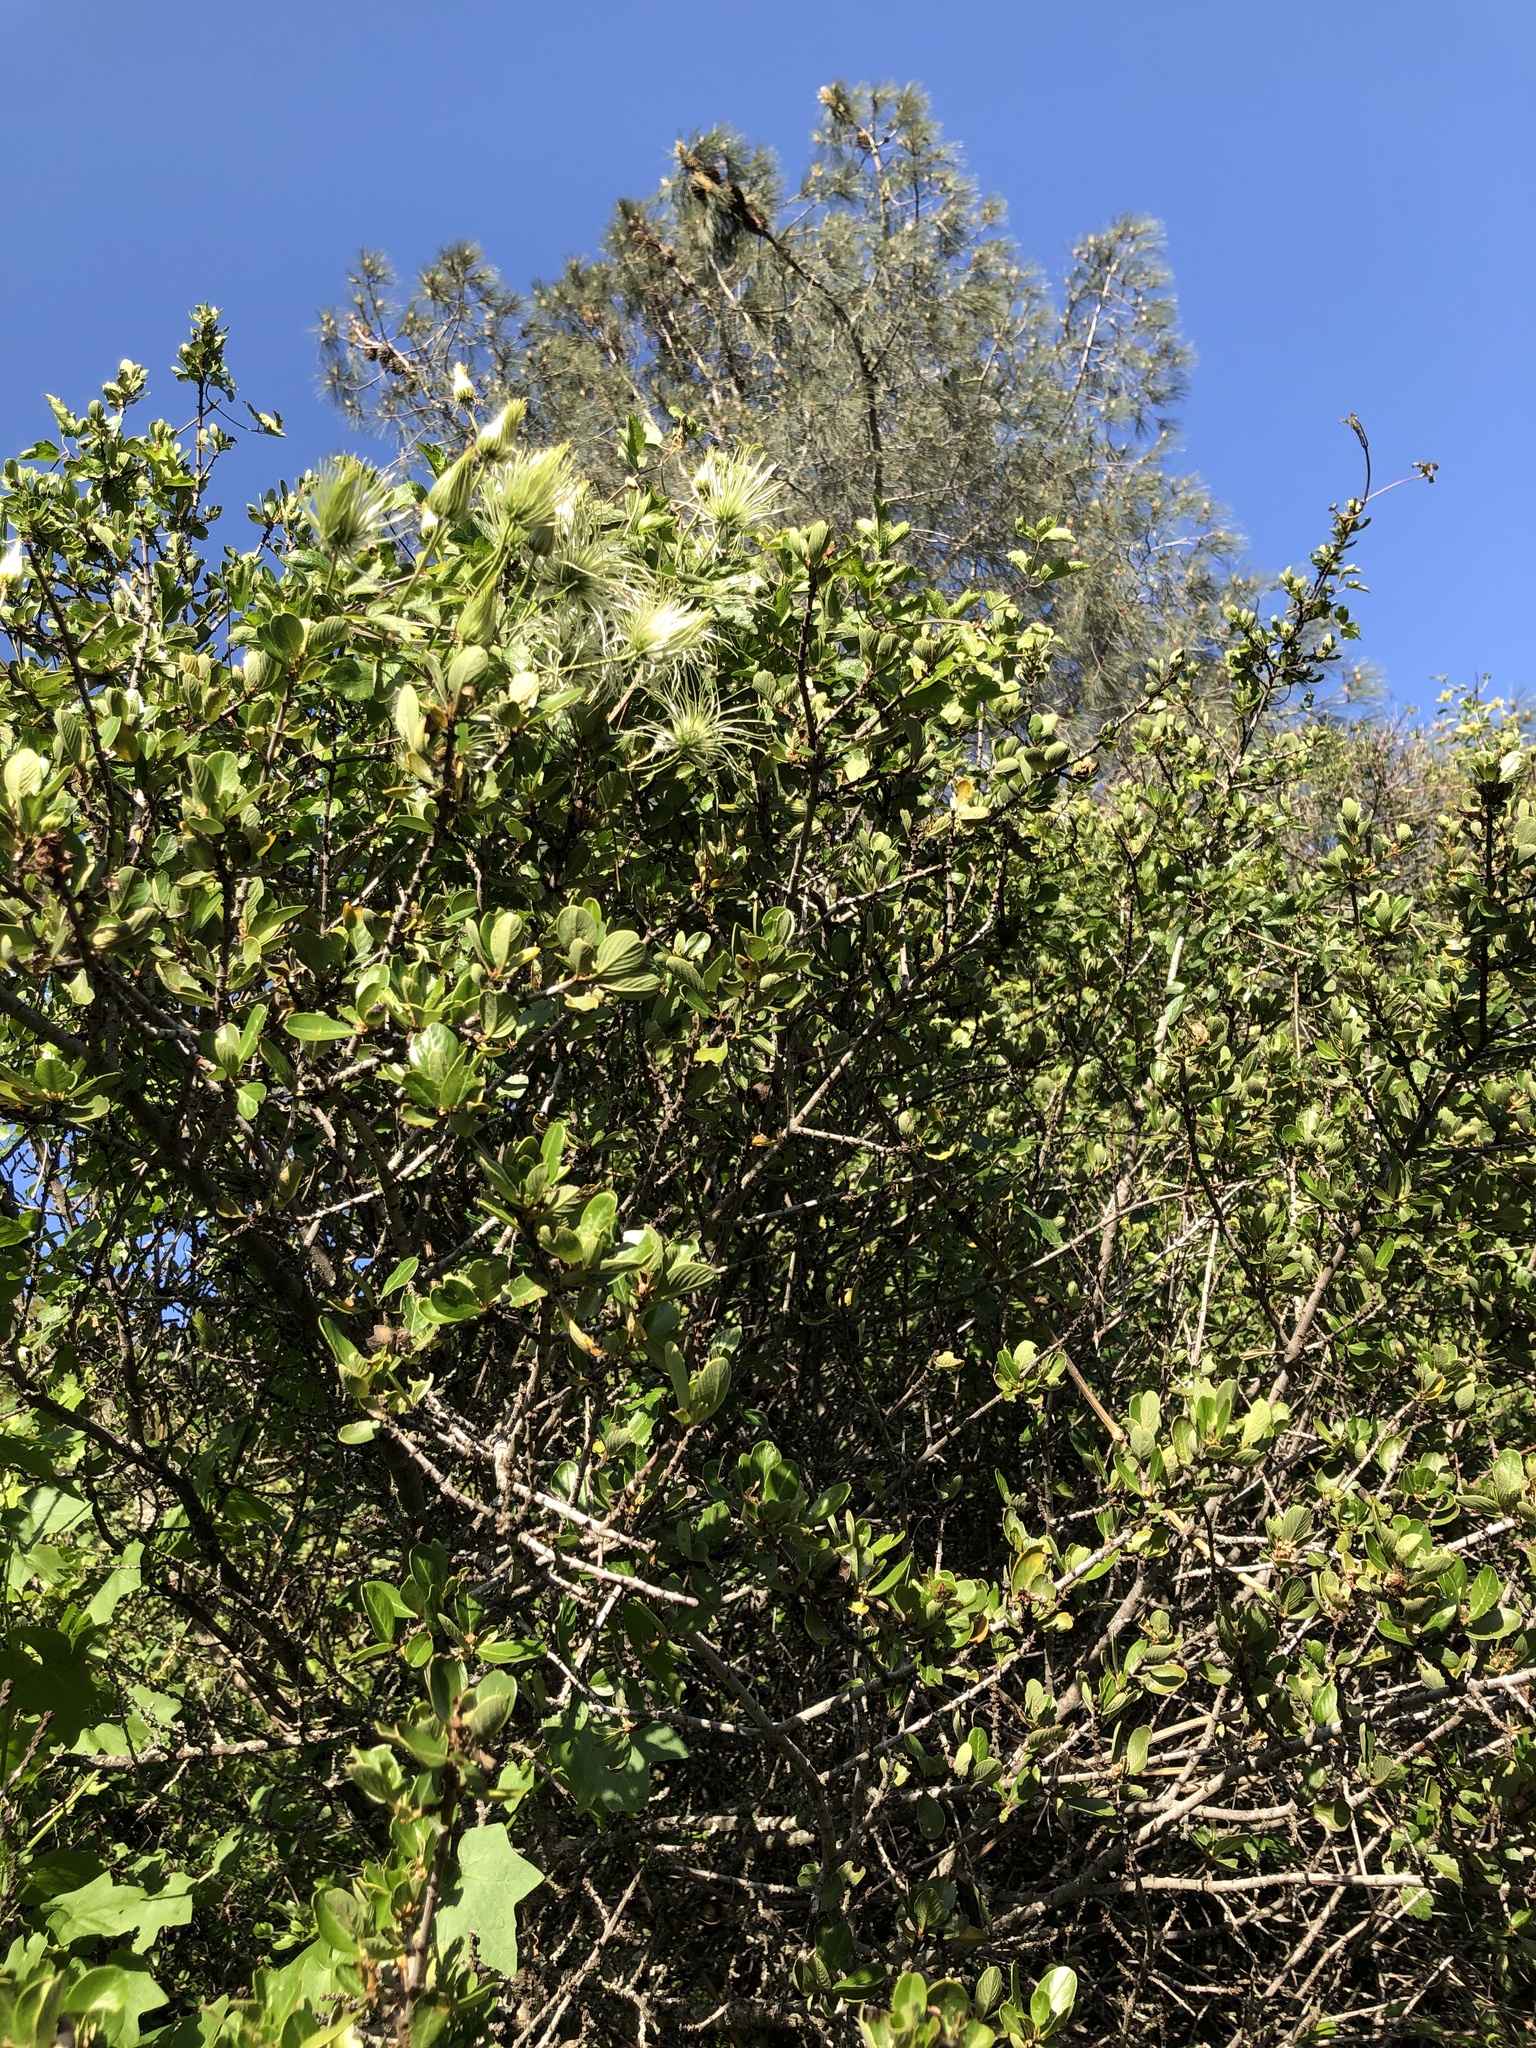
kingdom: Plantae
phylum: Tracheophyta
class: Magnoliopsida
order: Ranunculales
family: Ranunculaceae
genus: Clematis
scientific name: Clematis lasiantha
